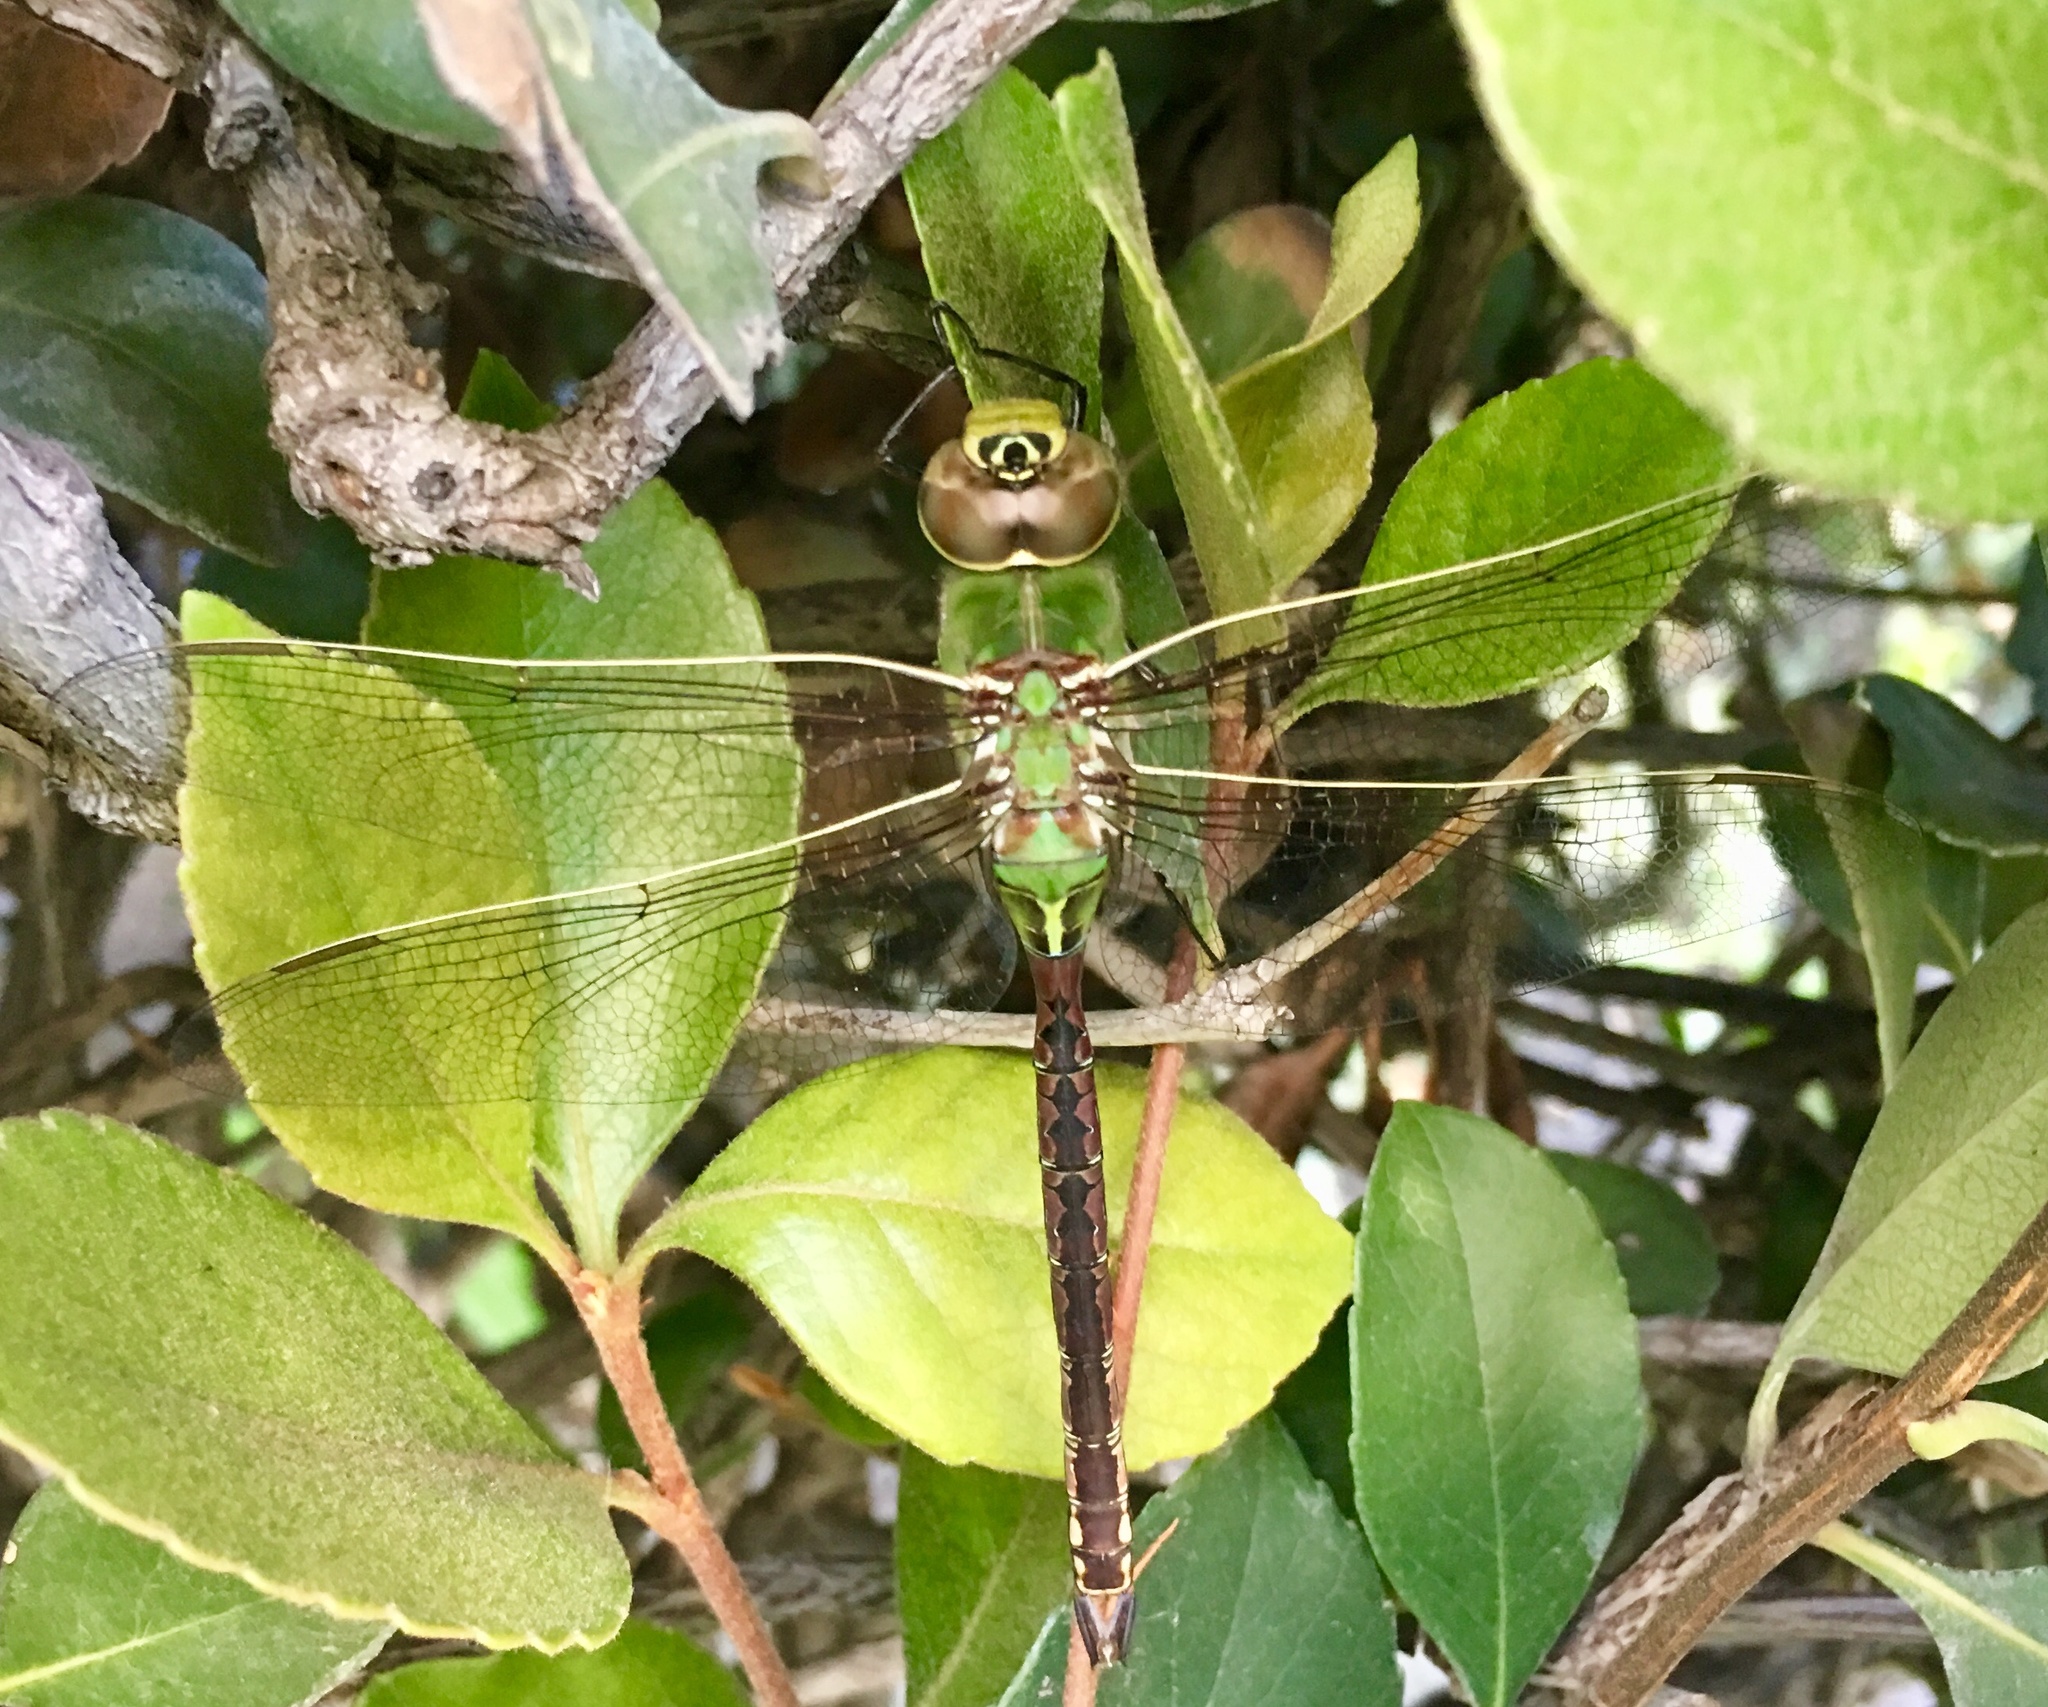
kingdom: Animalia
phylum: Arthropoda
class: Insecta
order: Odonata
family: Aeshnidae
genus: Anax
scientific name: Anax junius
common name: Common green darner
